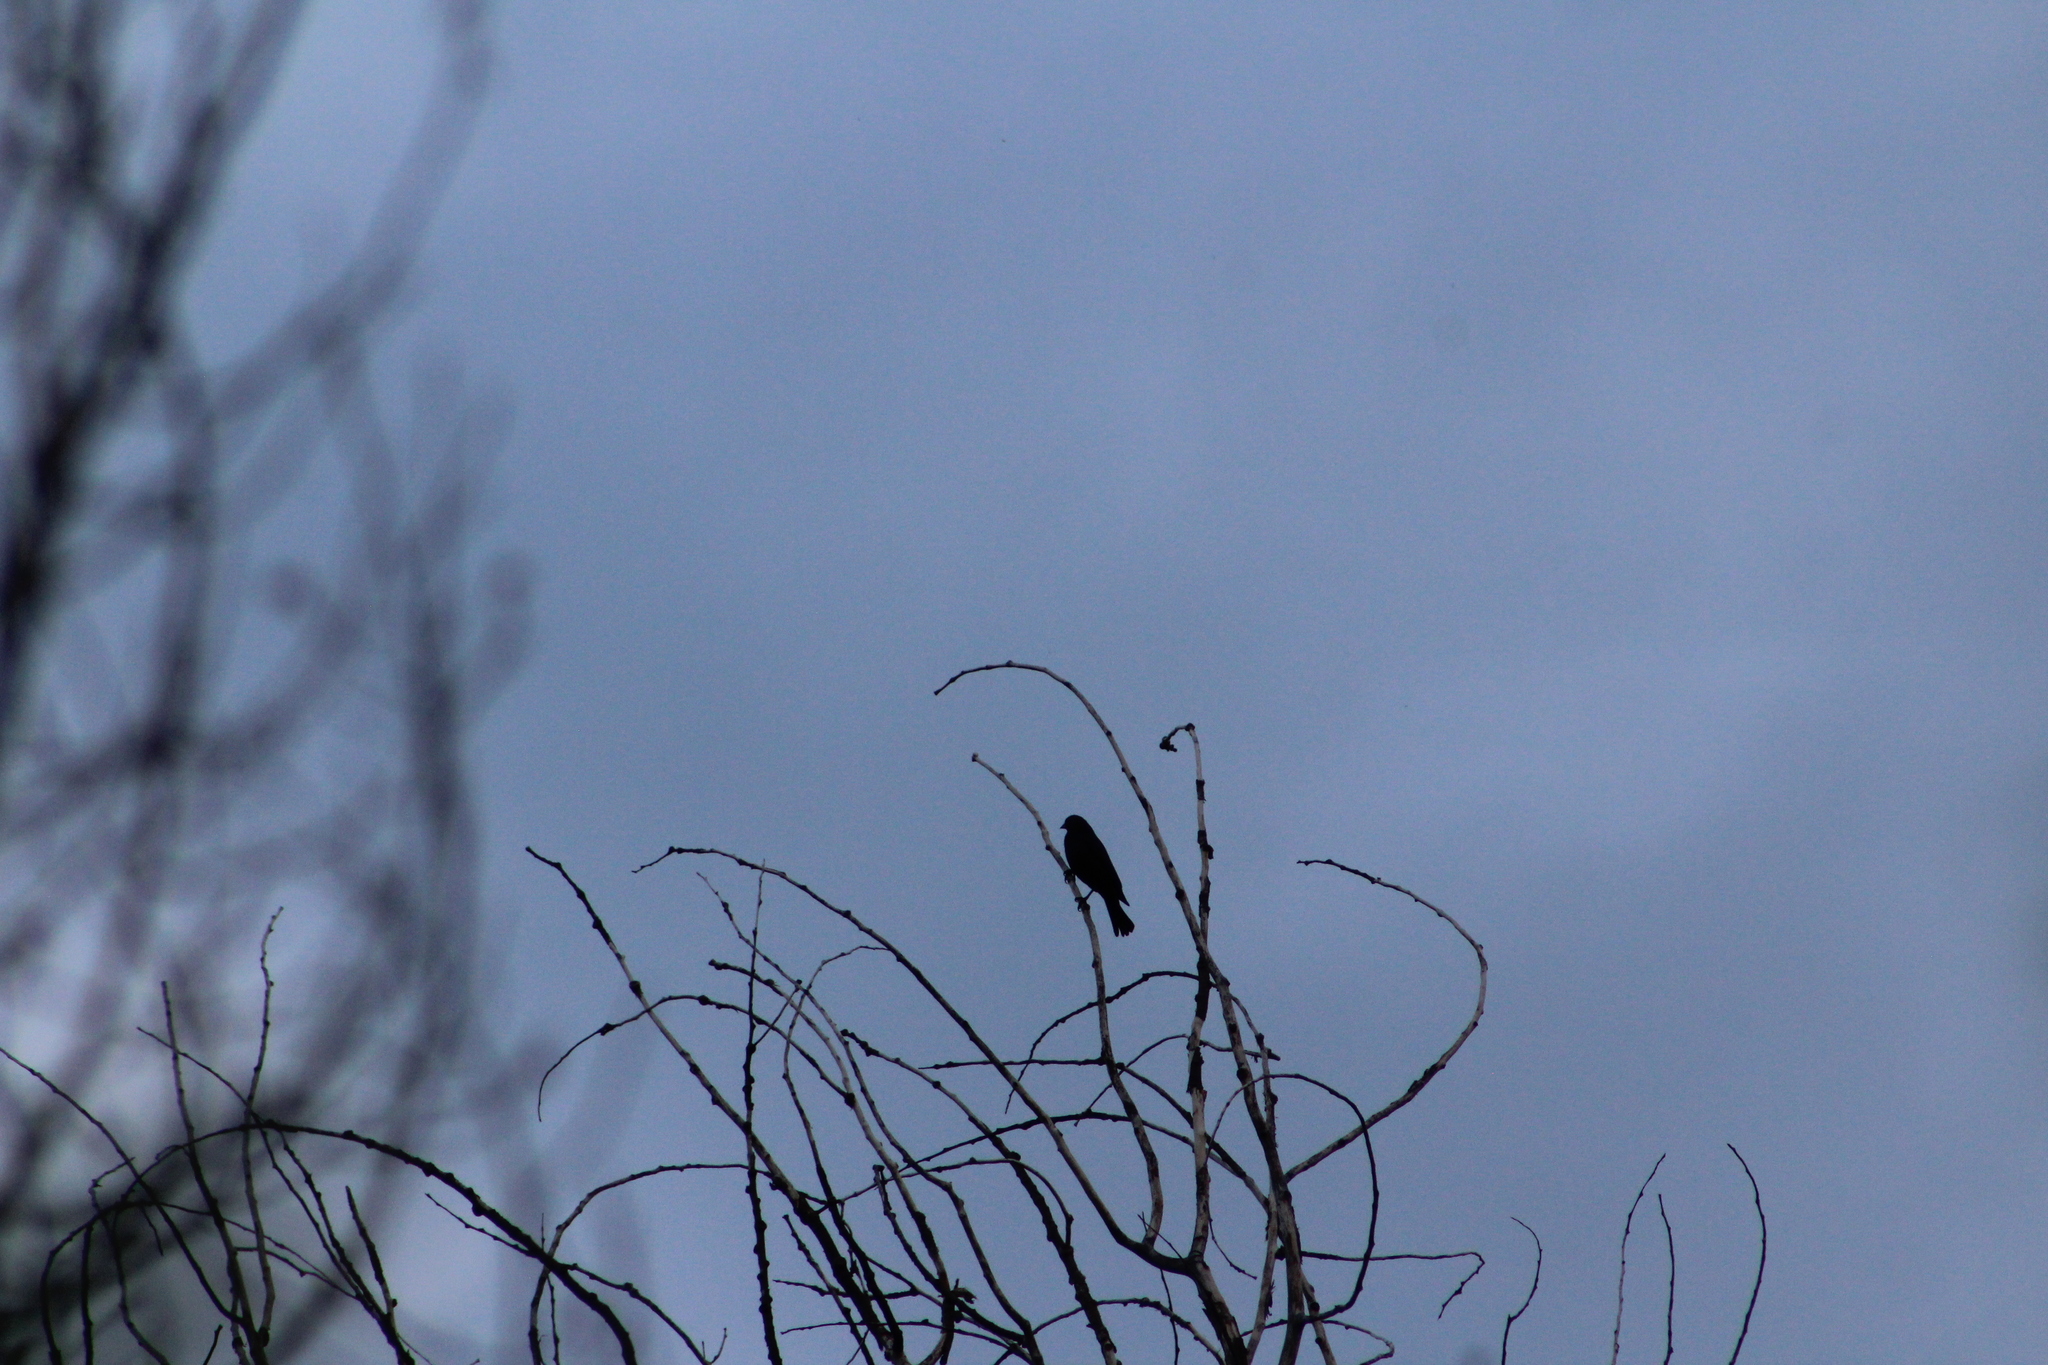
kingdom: Animalia
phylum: Chordata
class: Aves
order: Passeriformes
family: Icteridae
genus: Molothrus
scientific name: Molothrus ater
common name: Brown-headed cowbird
